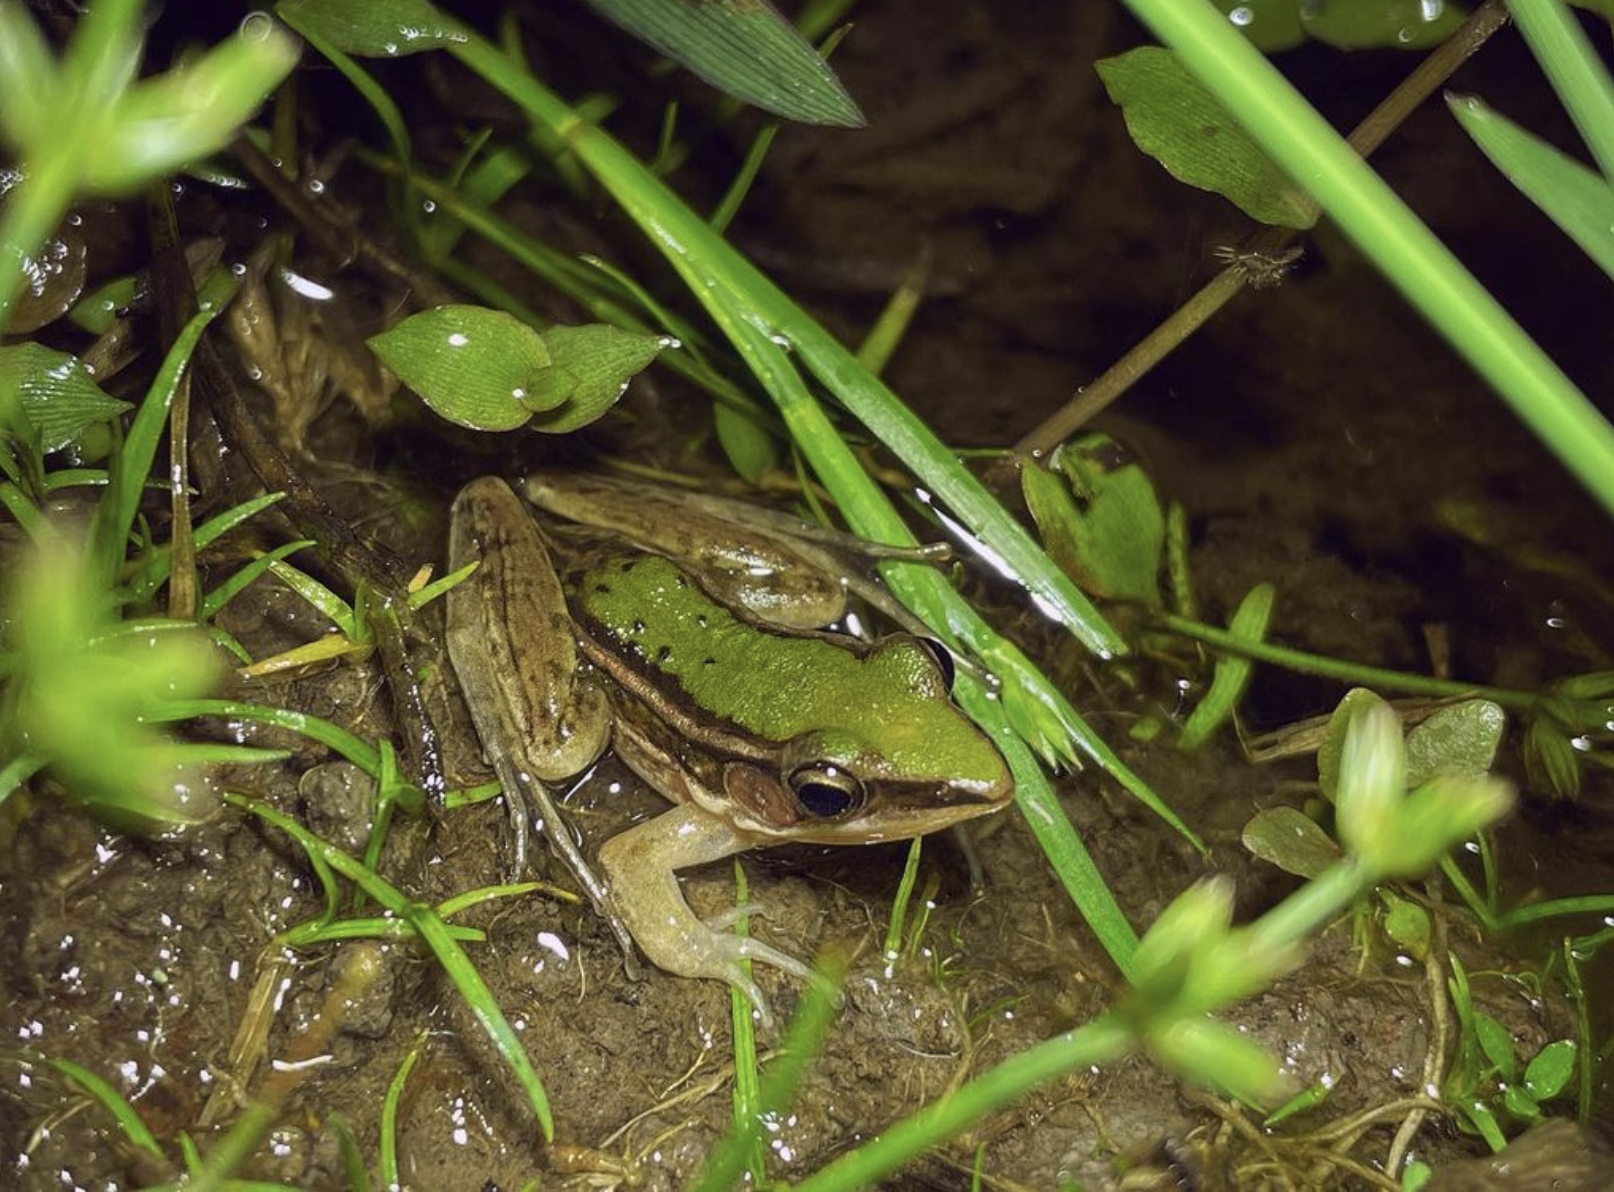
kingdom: Animalia
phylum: Chordata
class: Amphibia
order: Anura
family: Ranidae
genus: Hylarana
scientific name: Hylarana taipehensis
